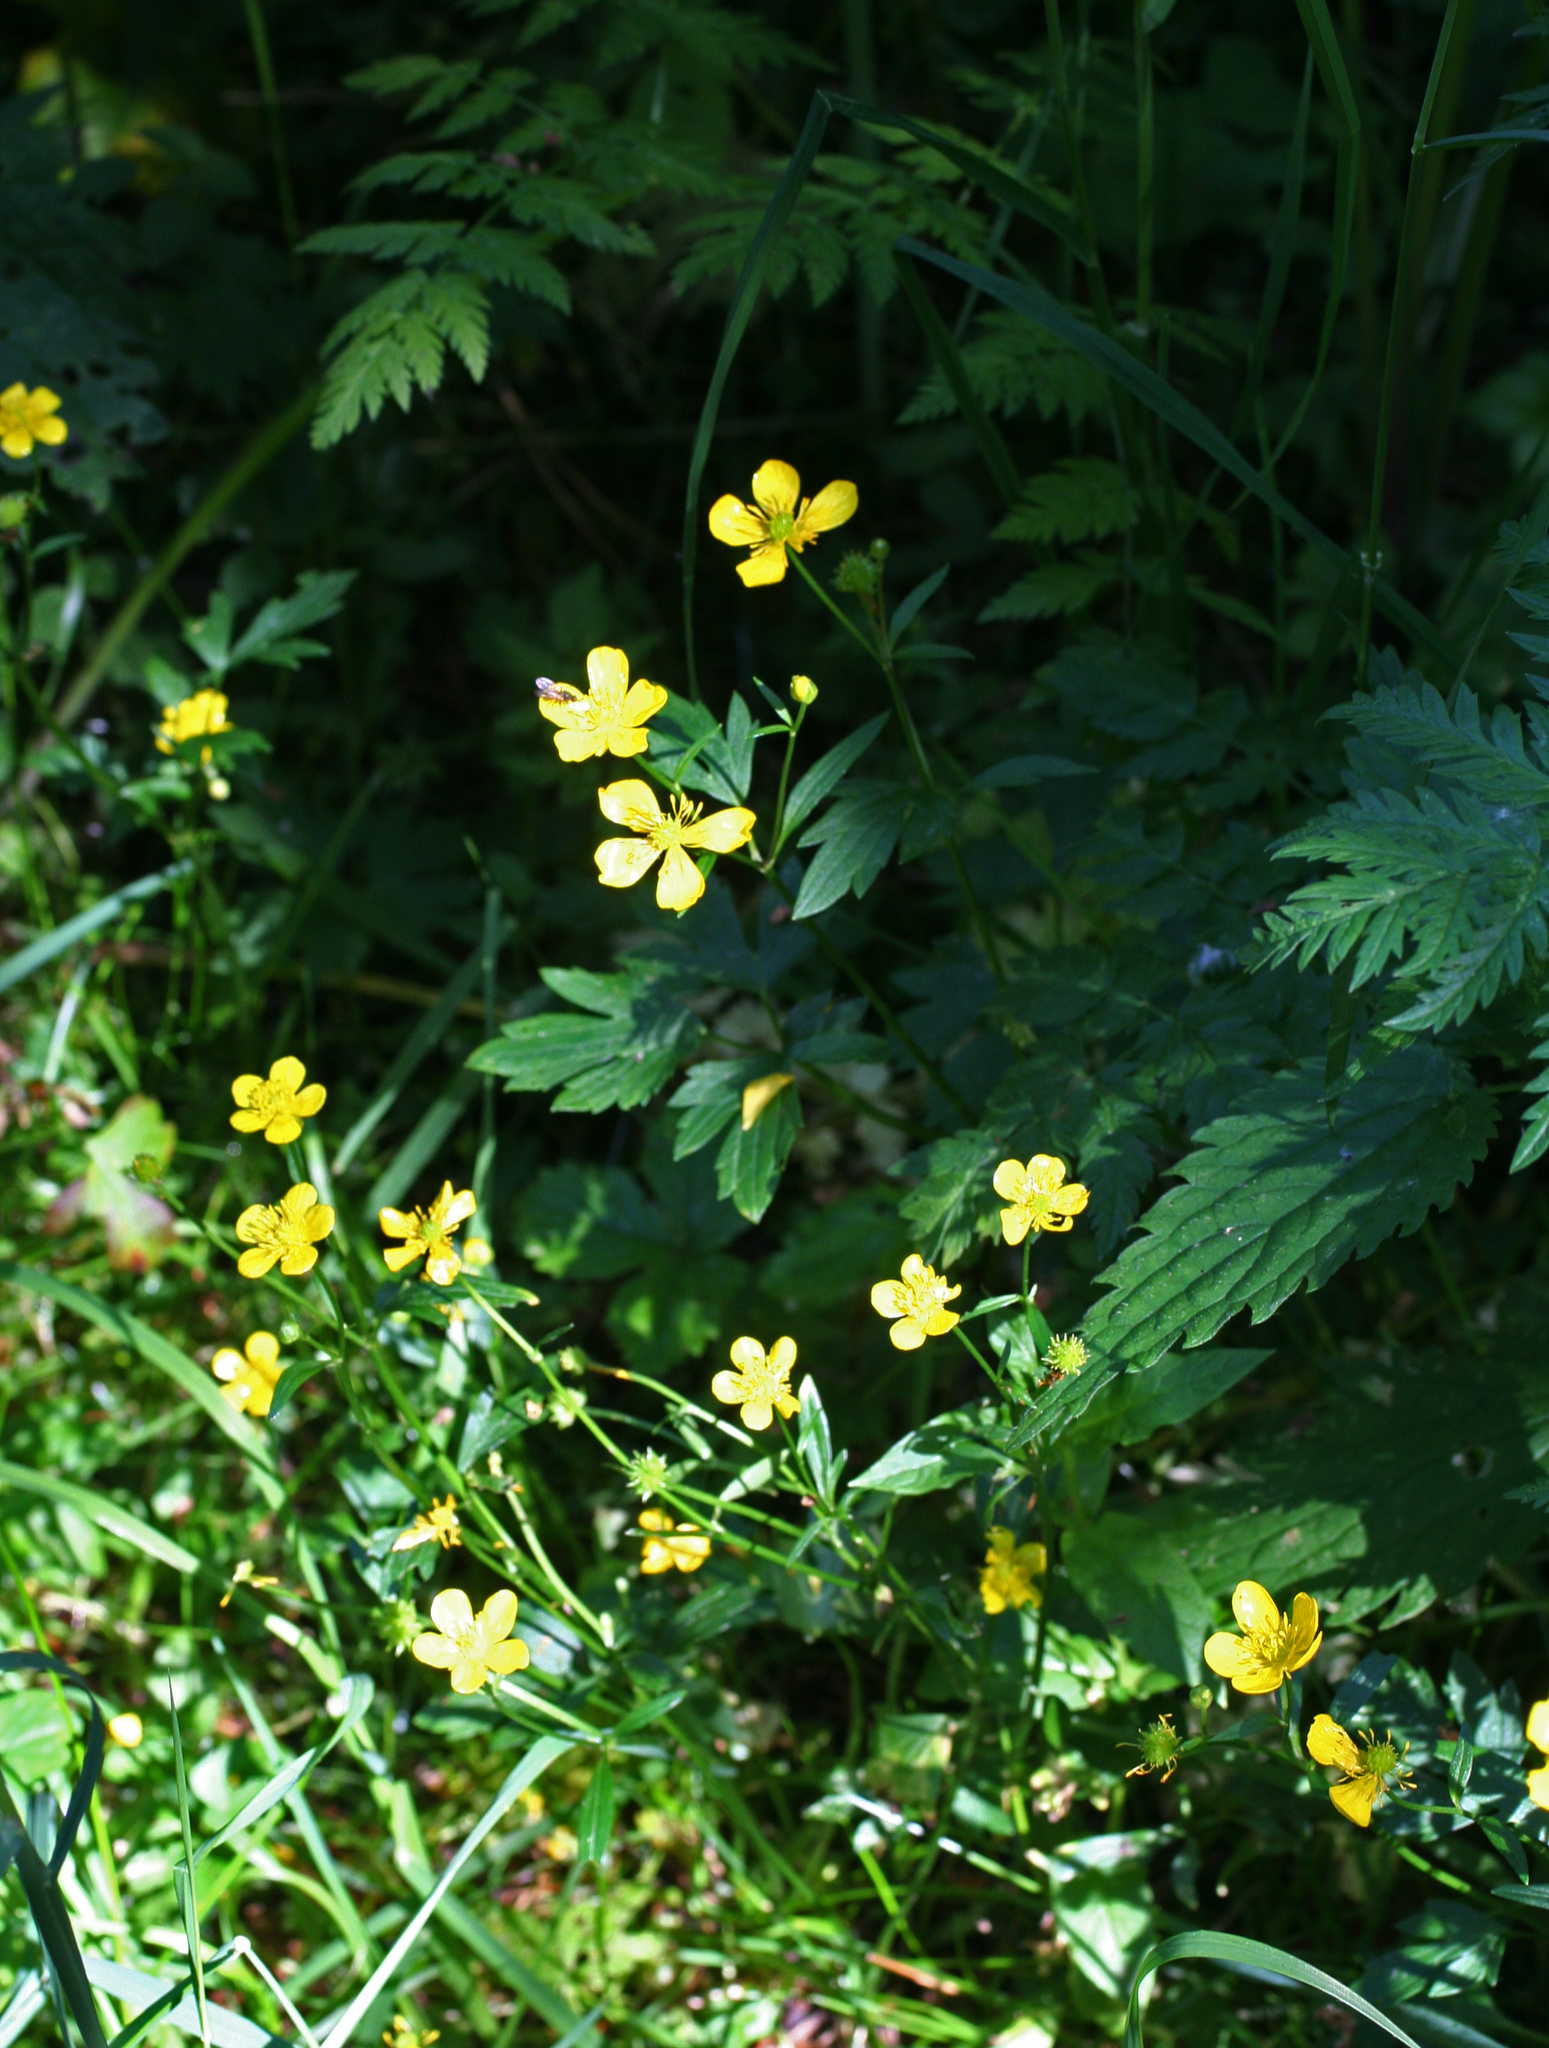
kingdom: Plantae
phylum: Tracheophyta
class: Magnoliopsida
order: Ranunculales
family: Ranunculaceae
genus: Ranunculus
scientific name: Ranunculus repens
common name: Creeping buttercup
